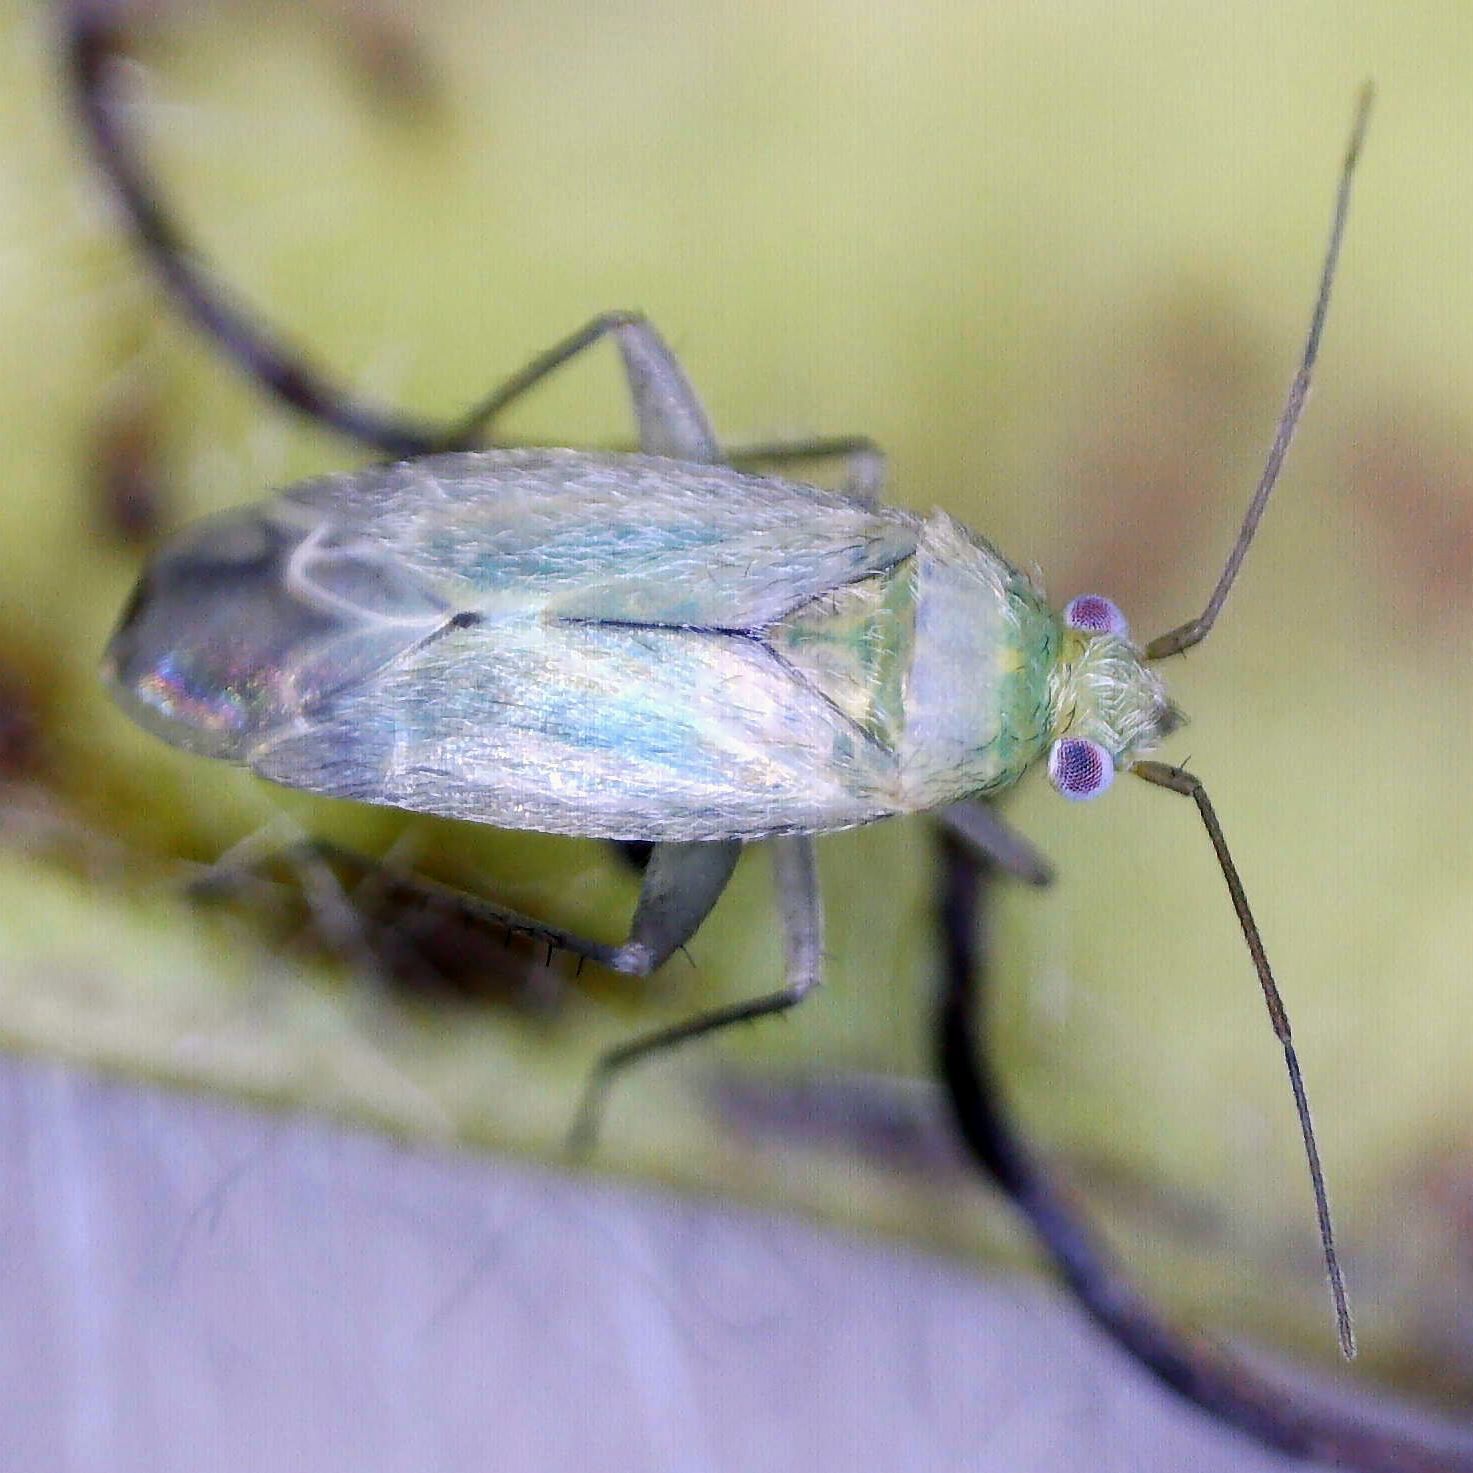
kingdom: Animalia
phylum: Arthropoda
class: Insecta
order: Hemiptera
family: Miridae
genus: Asciodema
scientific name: Asciodema obsoleta
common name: Plant bug
